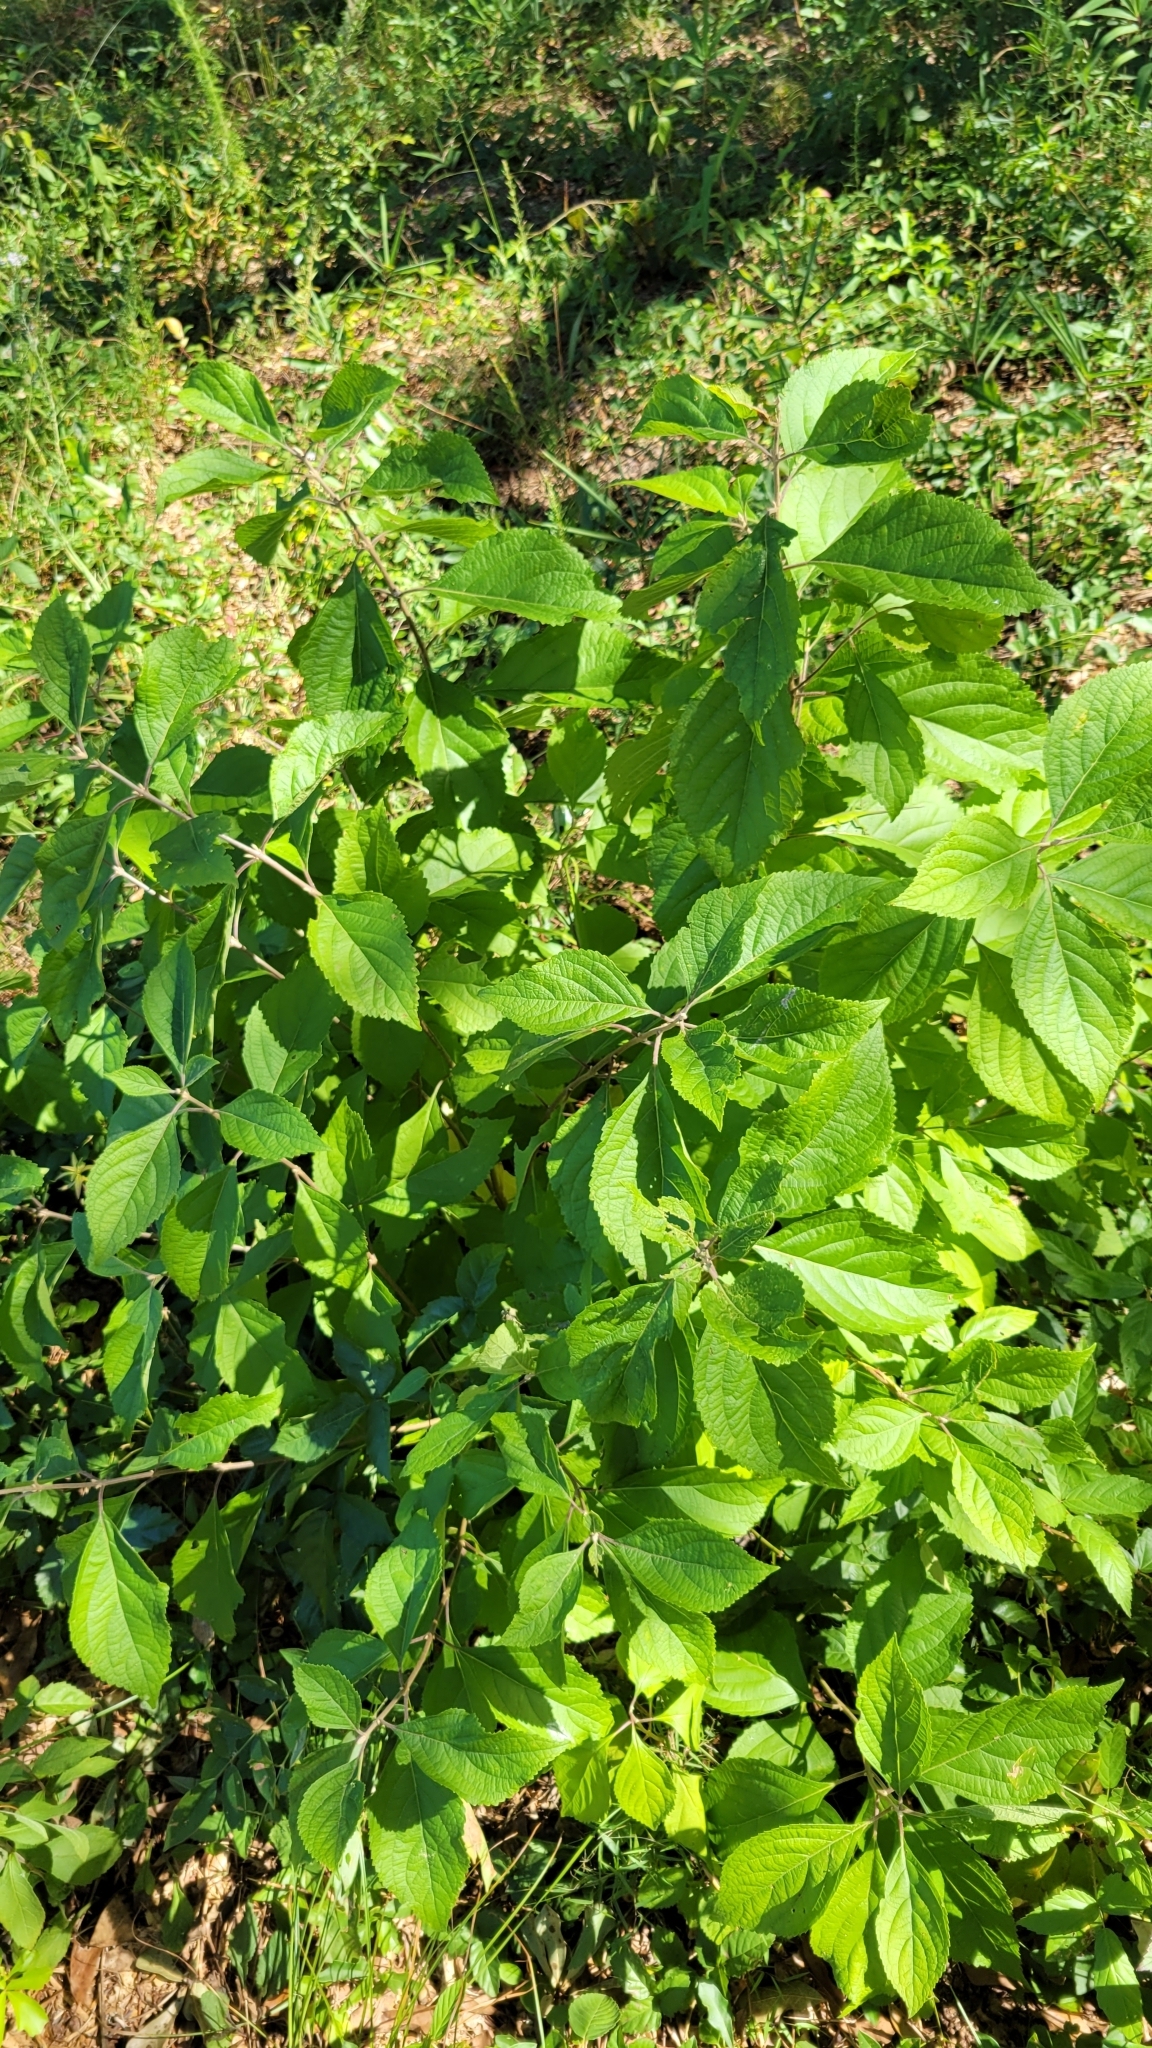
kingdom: Plantae
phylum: Tracheophyta
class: Magnoliopsida
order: Lamiales
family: Lamiaceae
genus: Callicarpa
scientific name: Callicarpa americana
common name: American beautyberry
